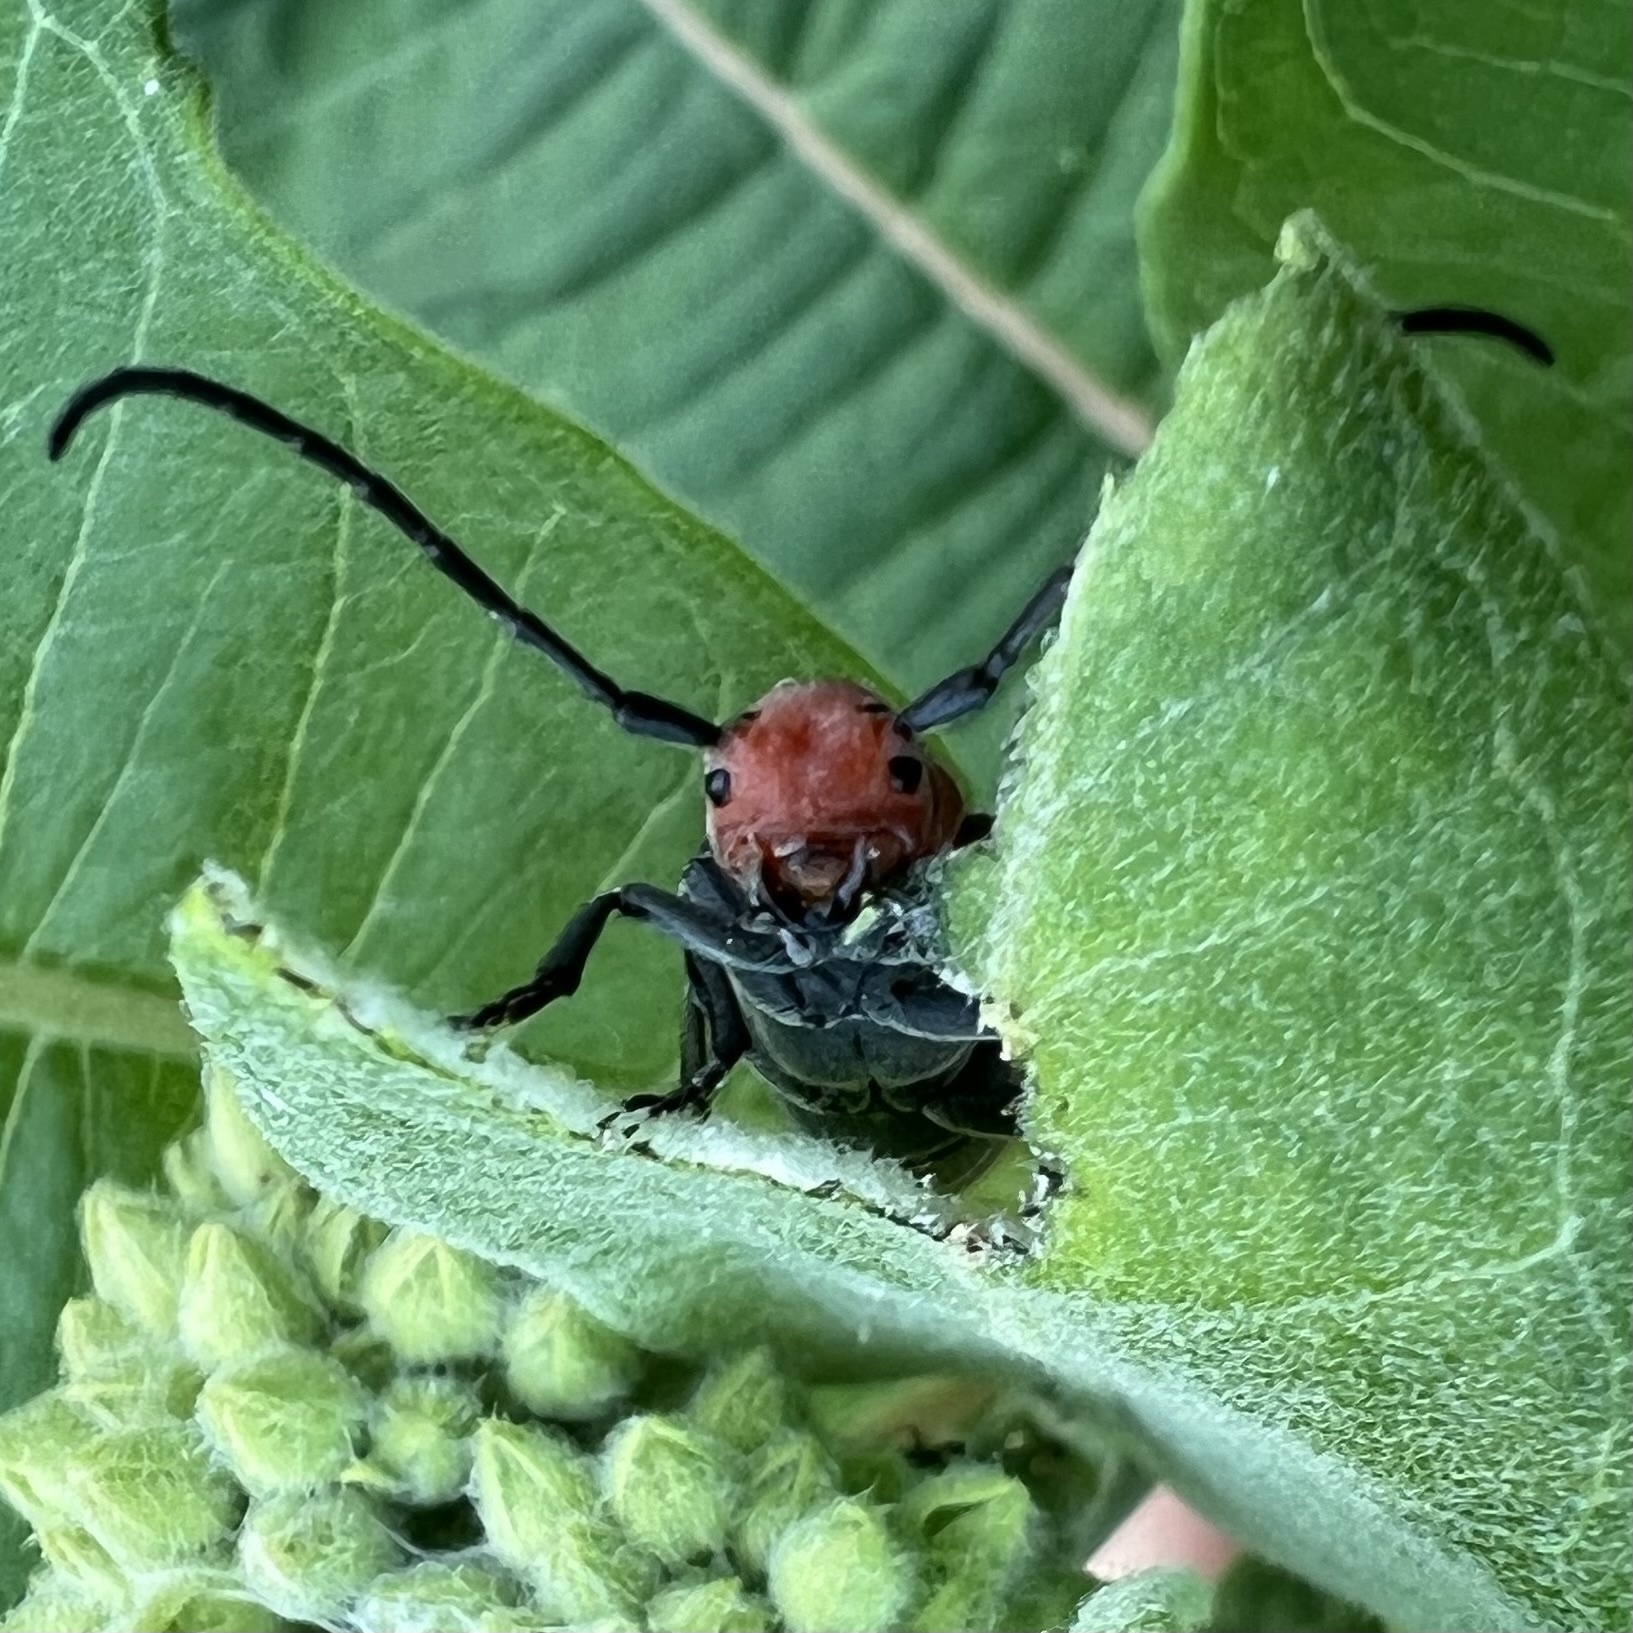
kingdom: Animalia
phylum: Arthropoda
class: Insecta
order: Coleoptera
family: Cerambycidae
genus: Tetraopes
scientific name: Tetraopes tetrophthalmus
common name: Red milkweed beetle
